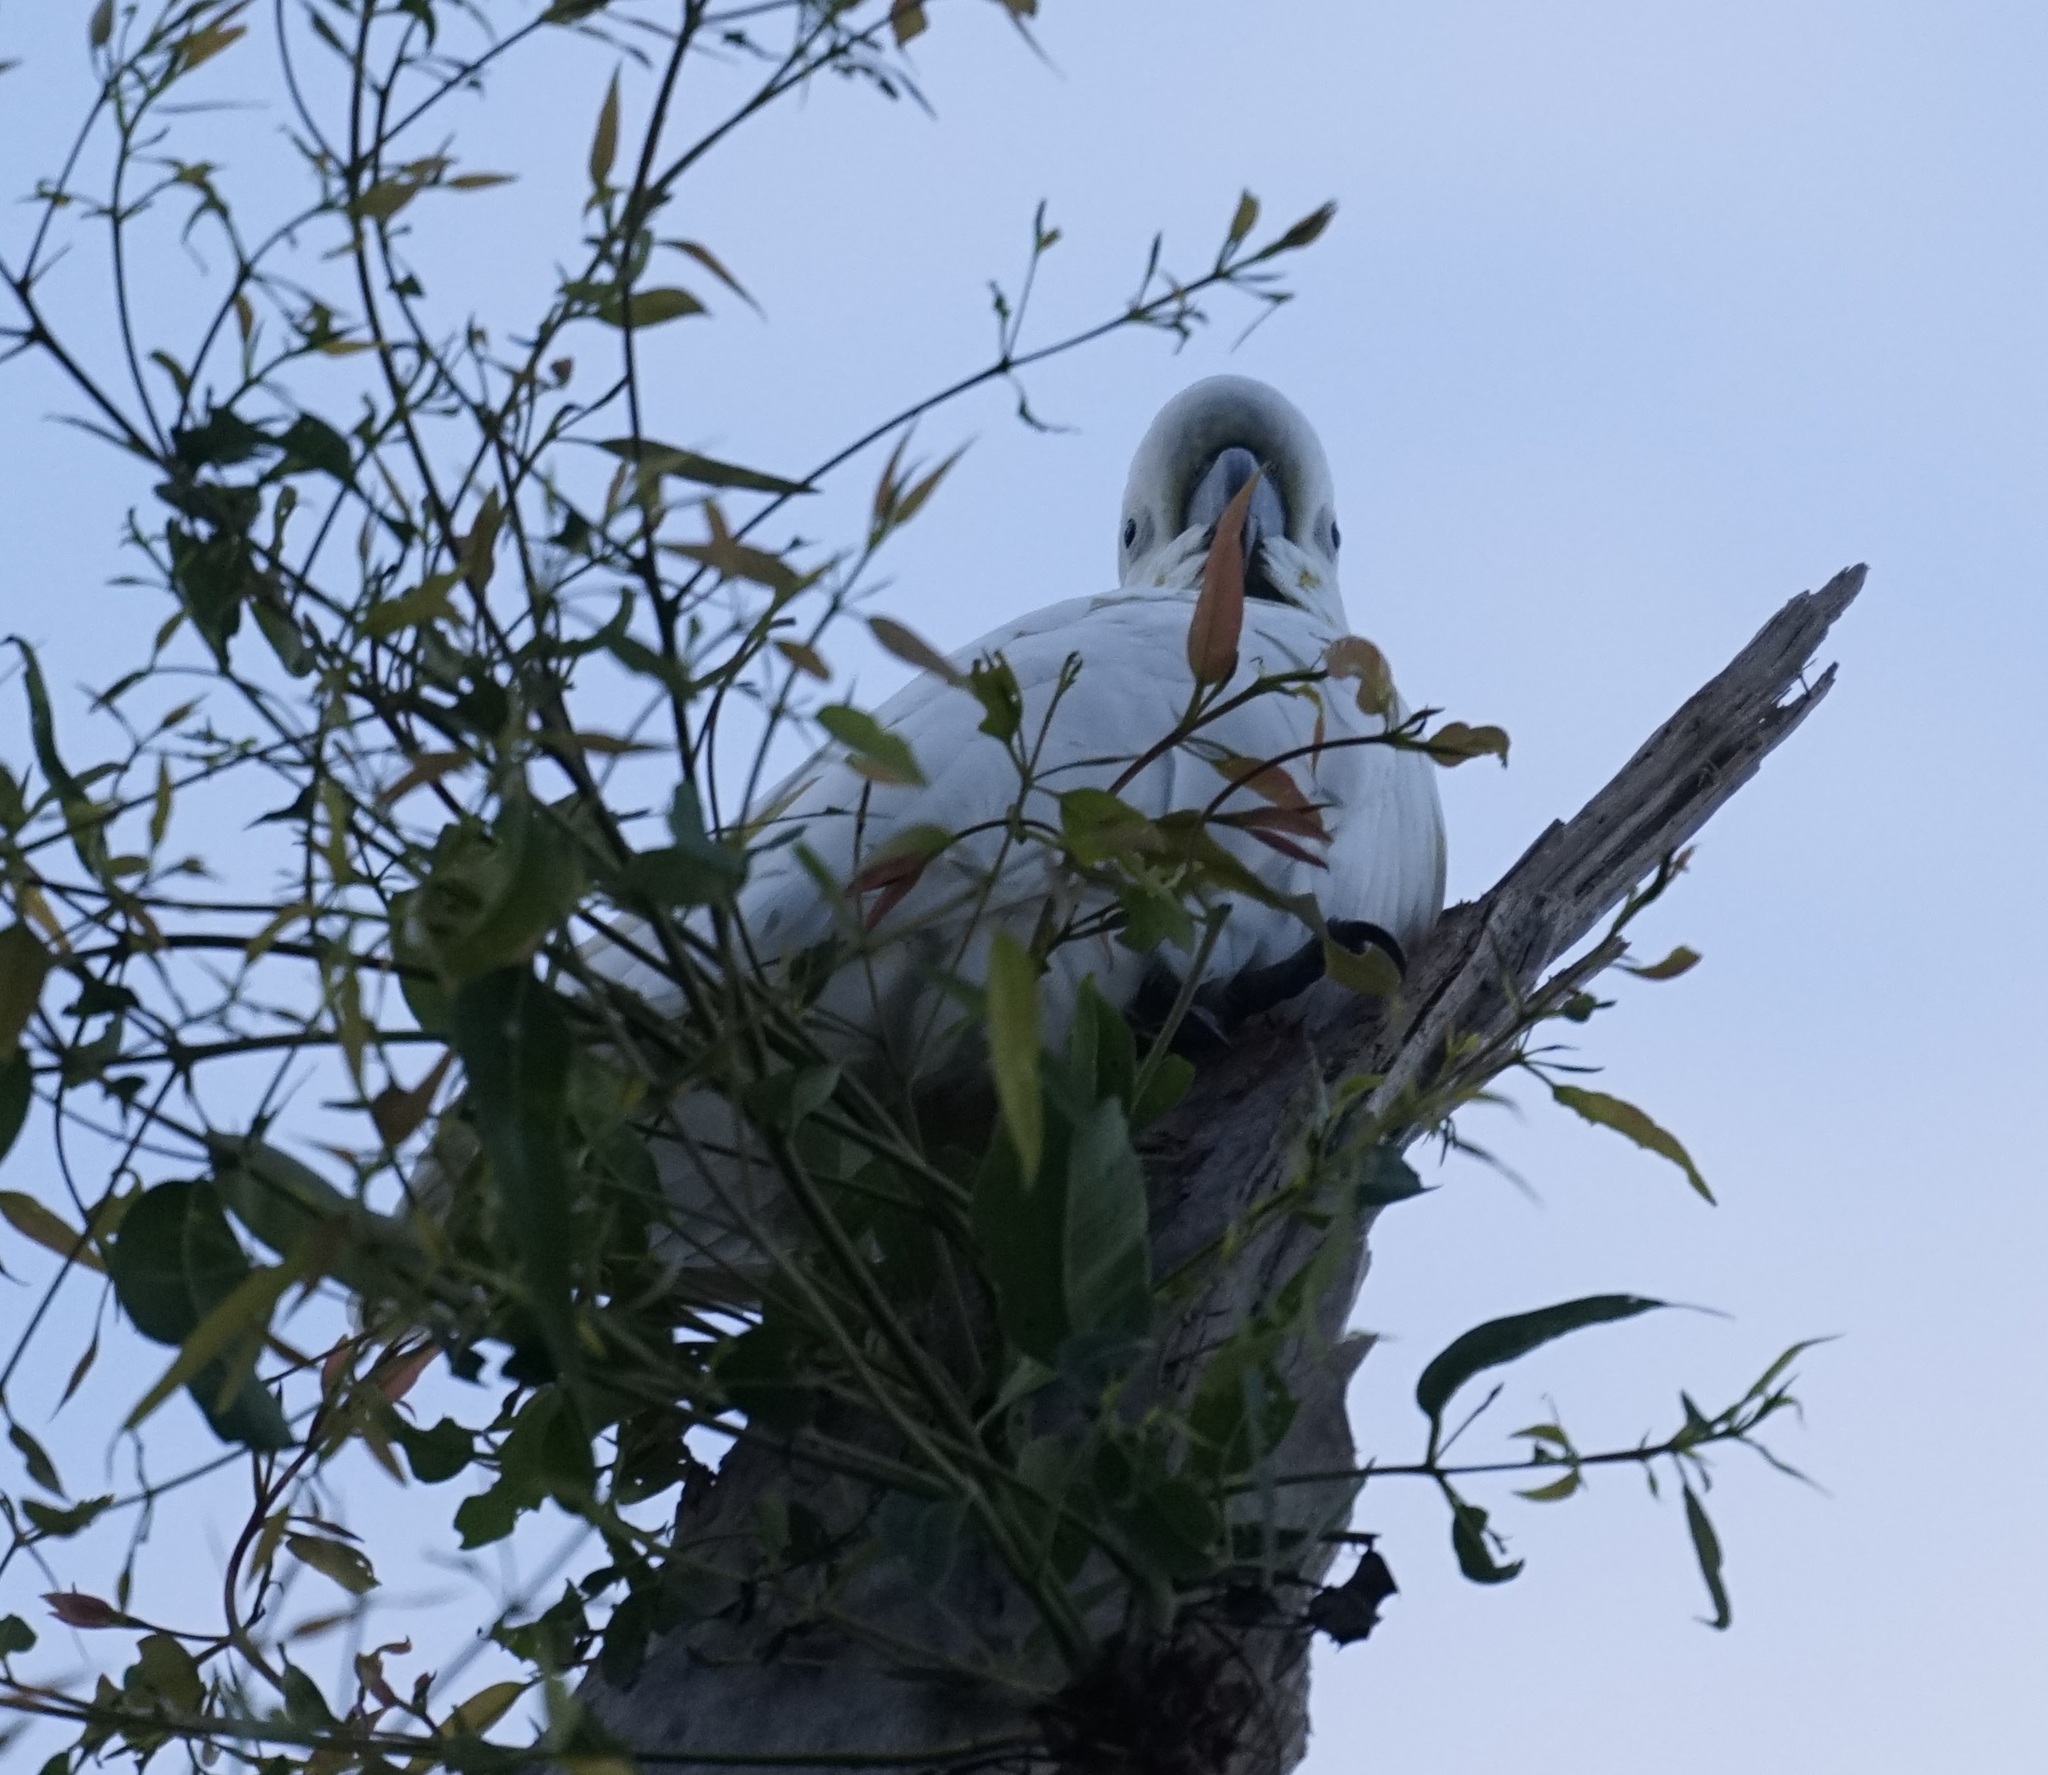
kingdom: Animalia
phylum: Chordata
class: Aves
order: Psittaciformes
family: Psittacidae
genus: Cacatua
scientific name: Cacatua galerita
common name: Sulphur-crested cockatoo
